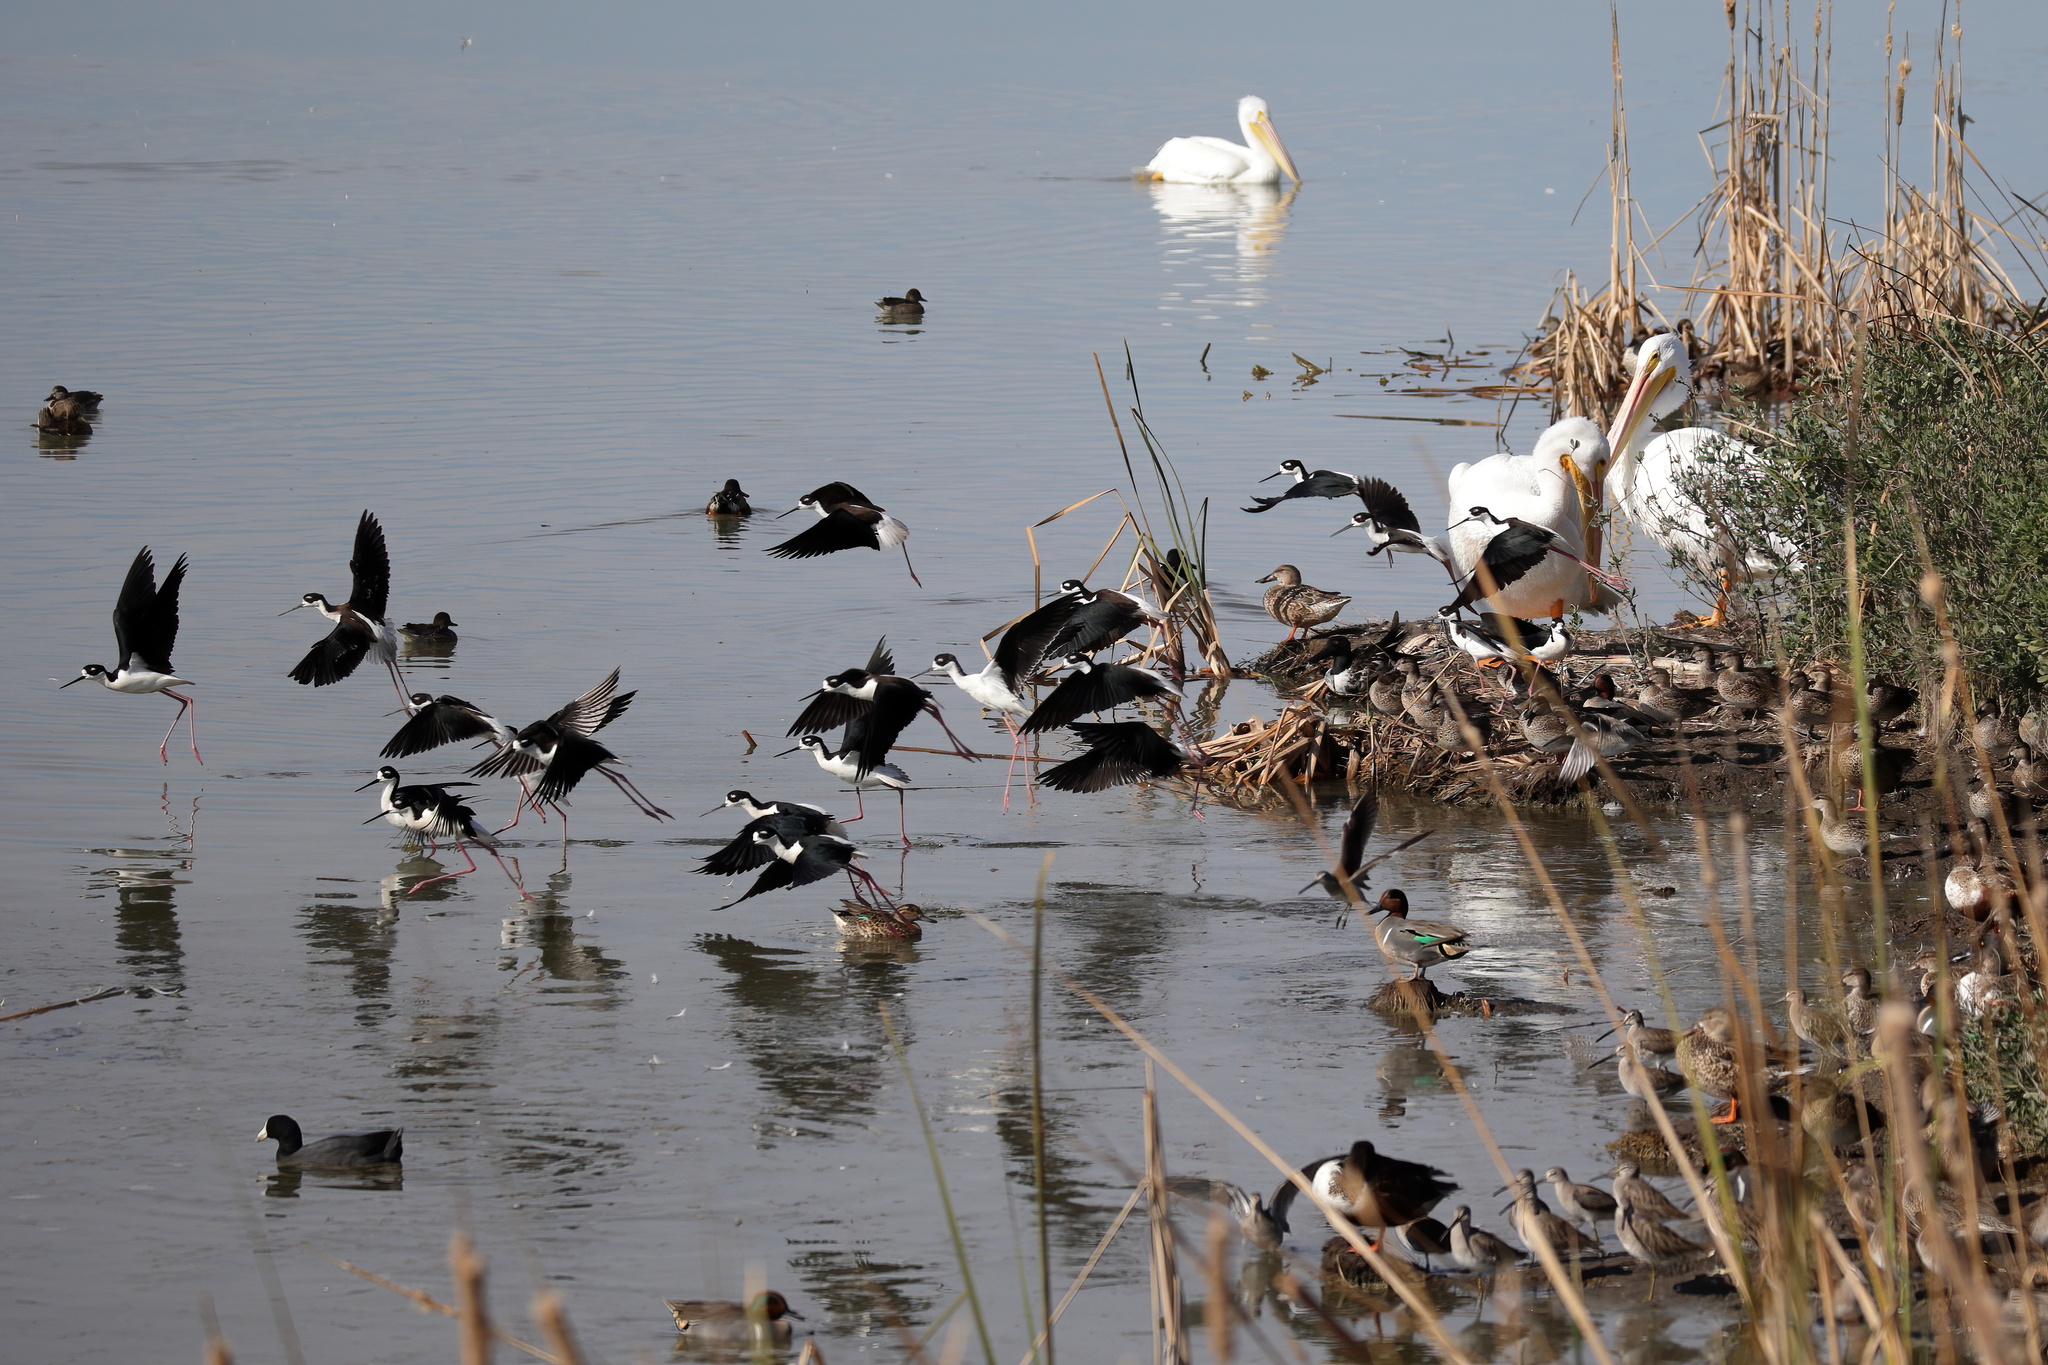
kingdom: Animalia
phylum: Chordata
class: Aves
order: Charadriiformes
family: Recurvirostridae
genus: Himantopus
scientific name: Himantopus mexicanus
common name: Black-necked stilt
